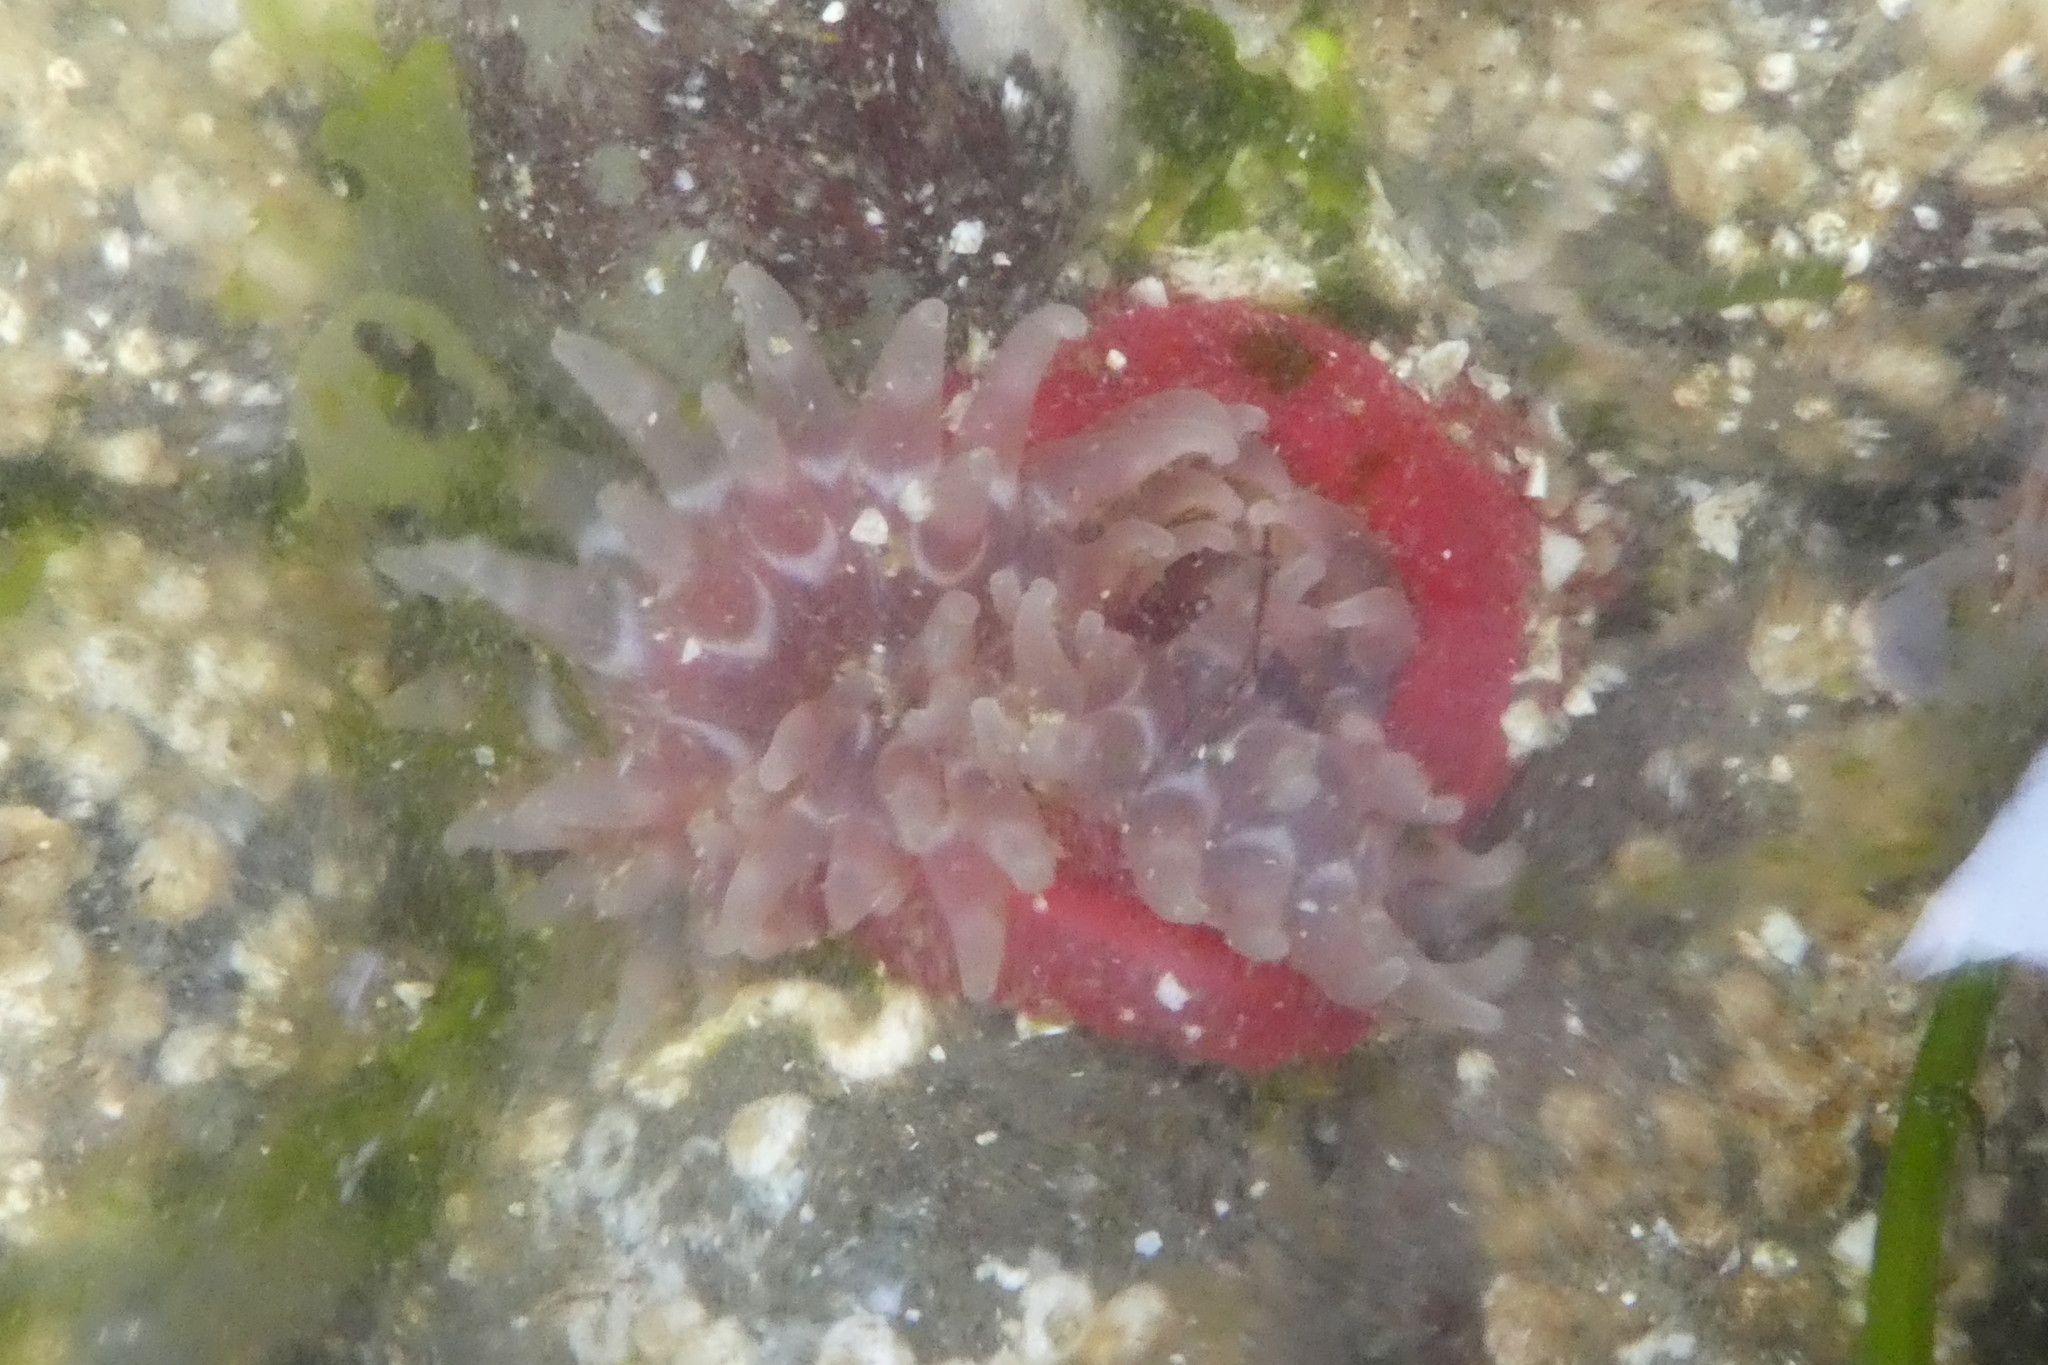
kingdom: Animalia
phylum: Cnidaria
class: Anthozoa
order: Actiniaria
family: Actiniidae
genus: Urticina
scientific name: Urticina clandestina
